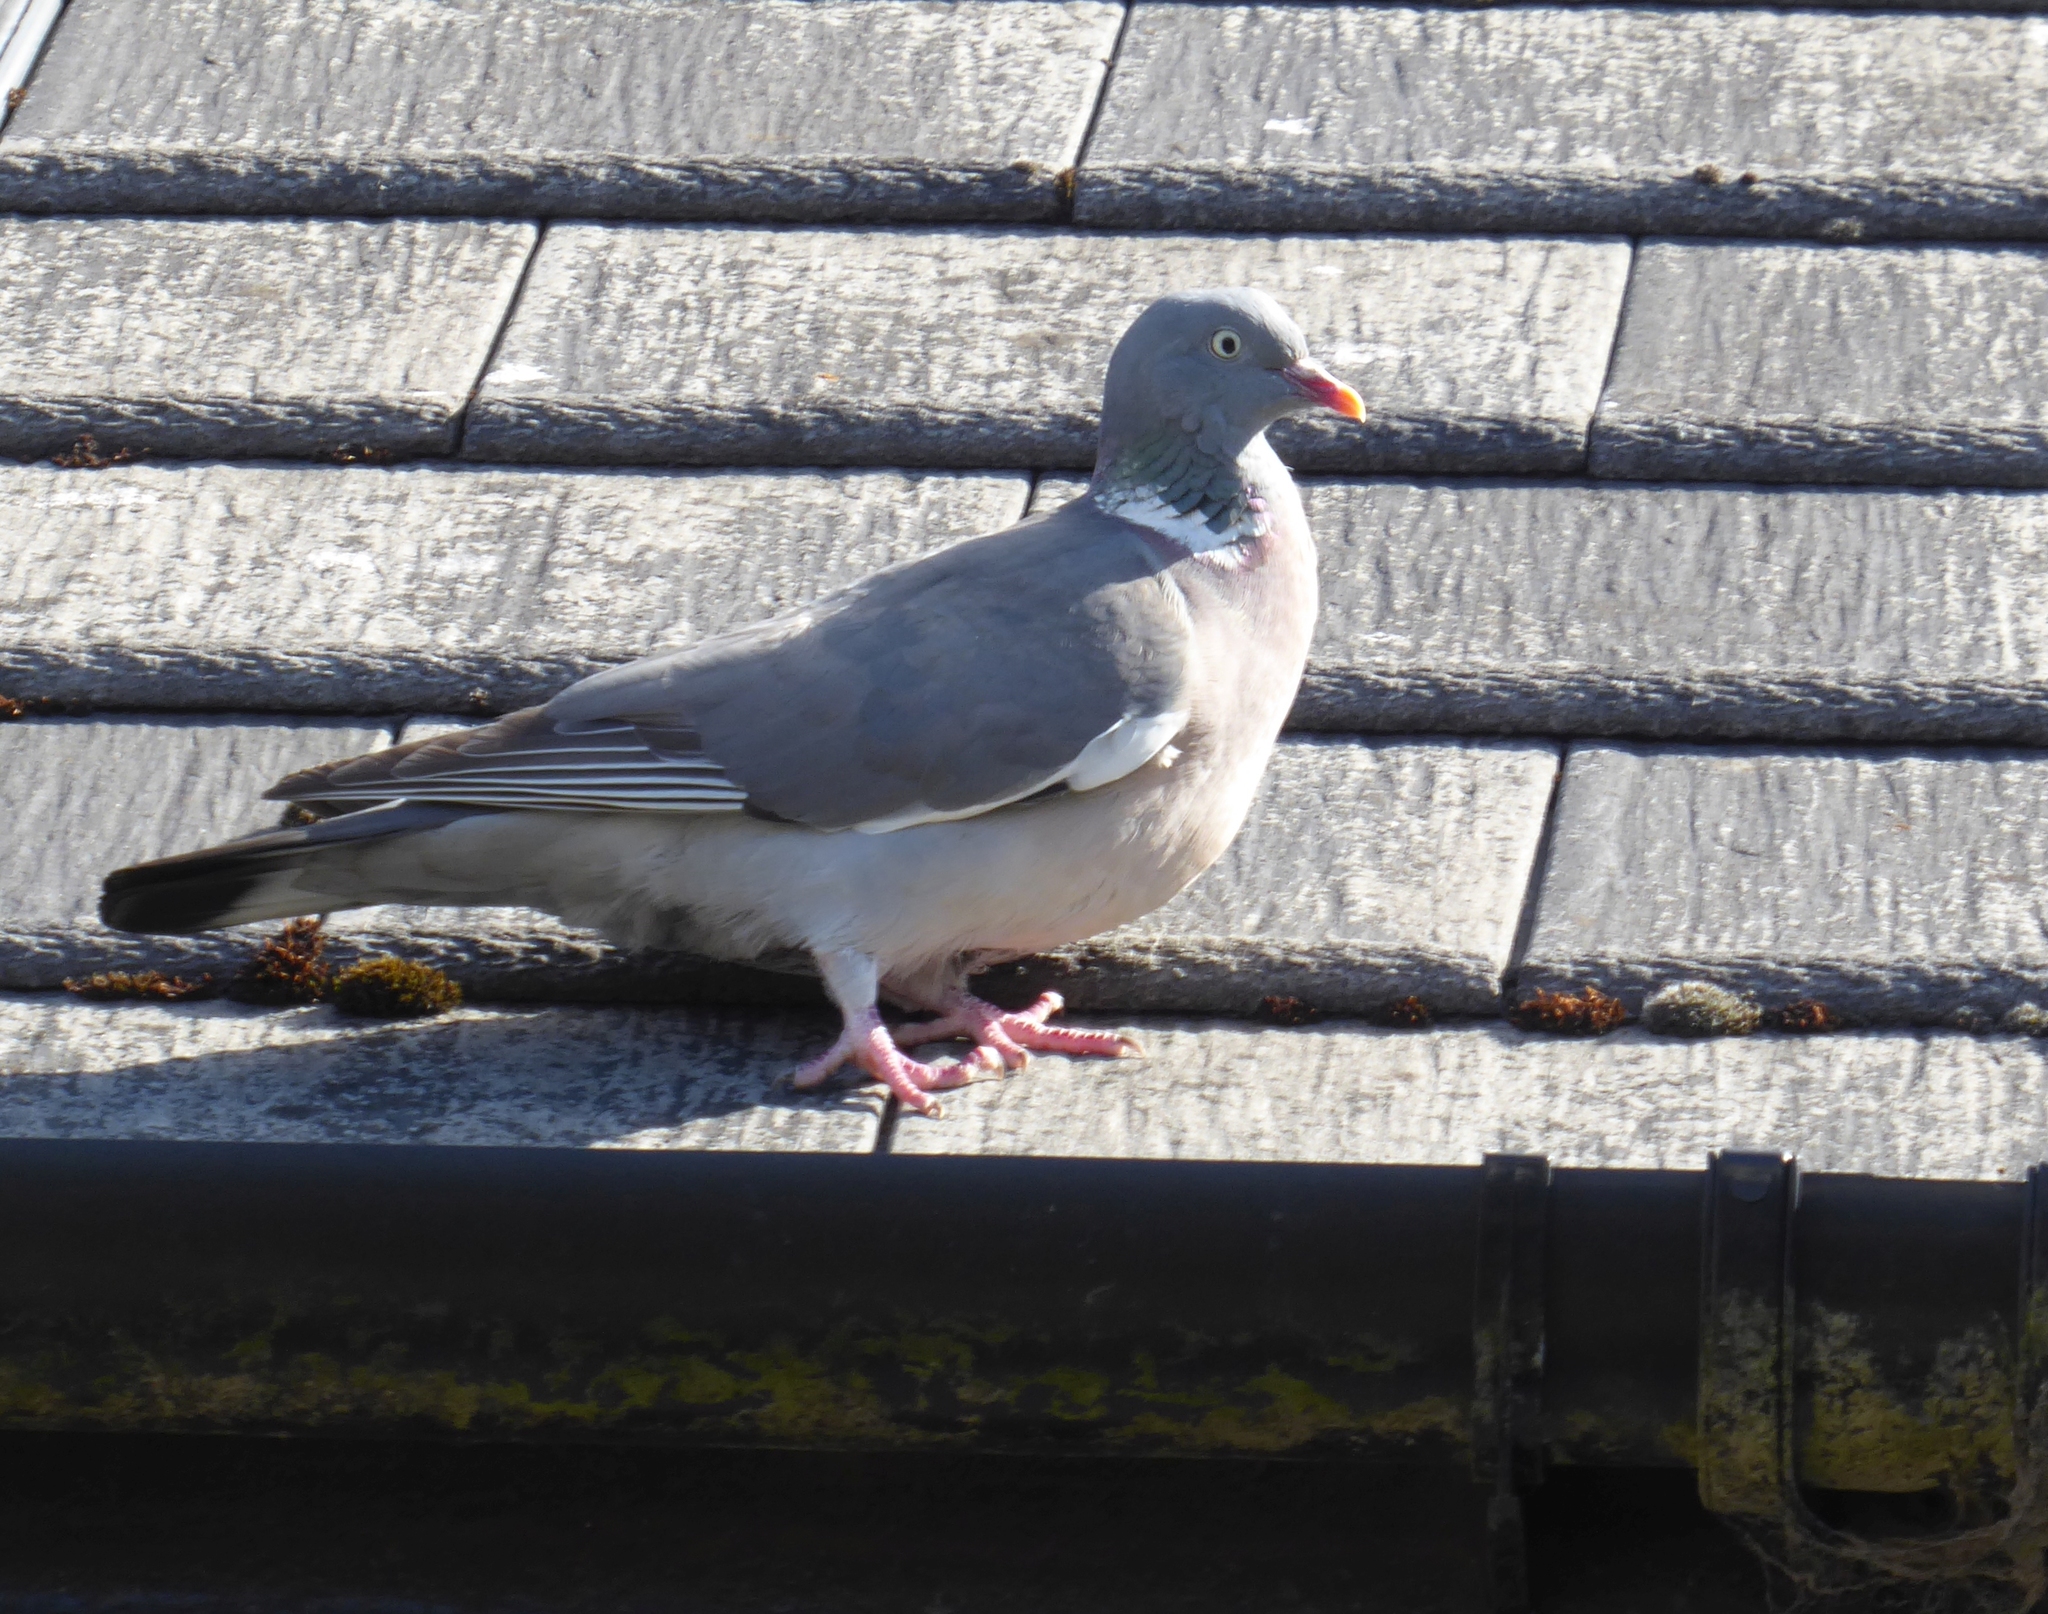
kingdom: Animalia
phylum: Chordata
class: Aves
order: Columbiformes
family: Columbidae
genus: Columba
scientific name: Columba palumbus
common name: Common wood pigeon
